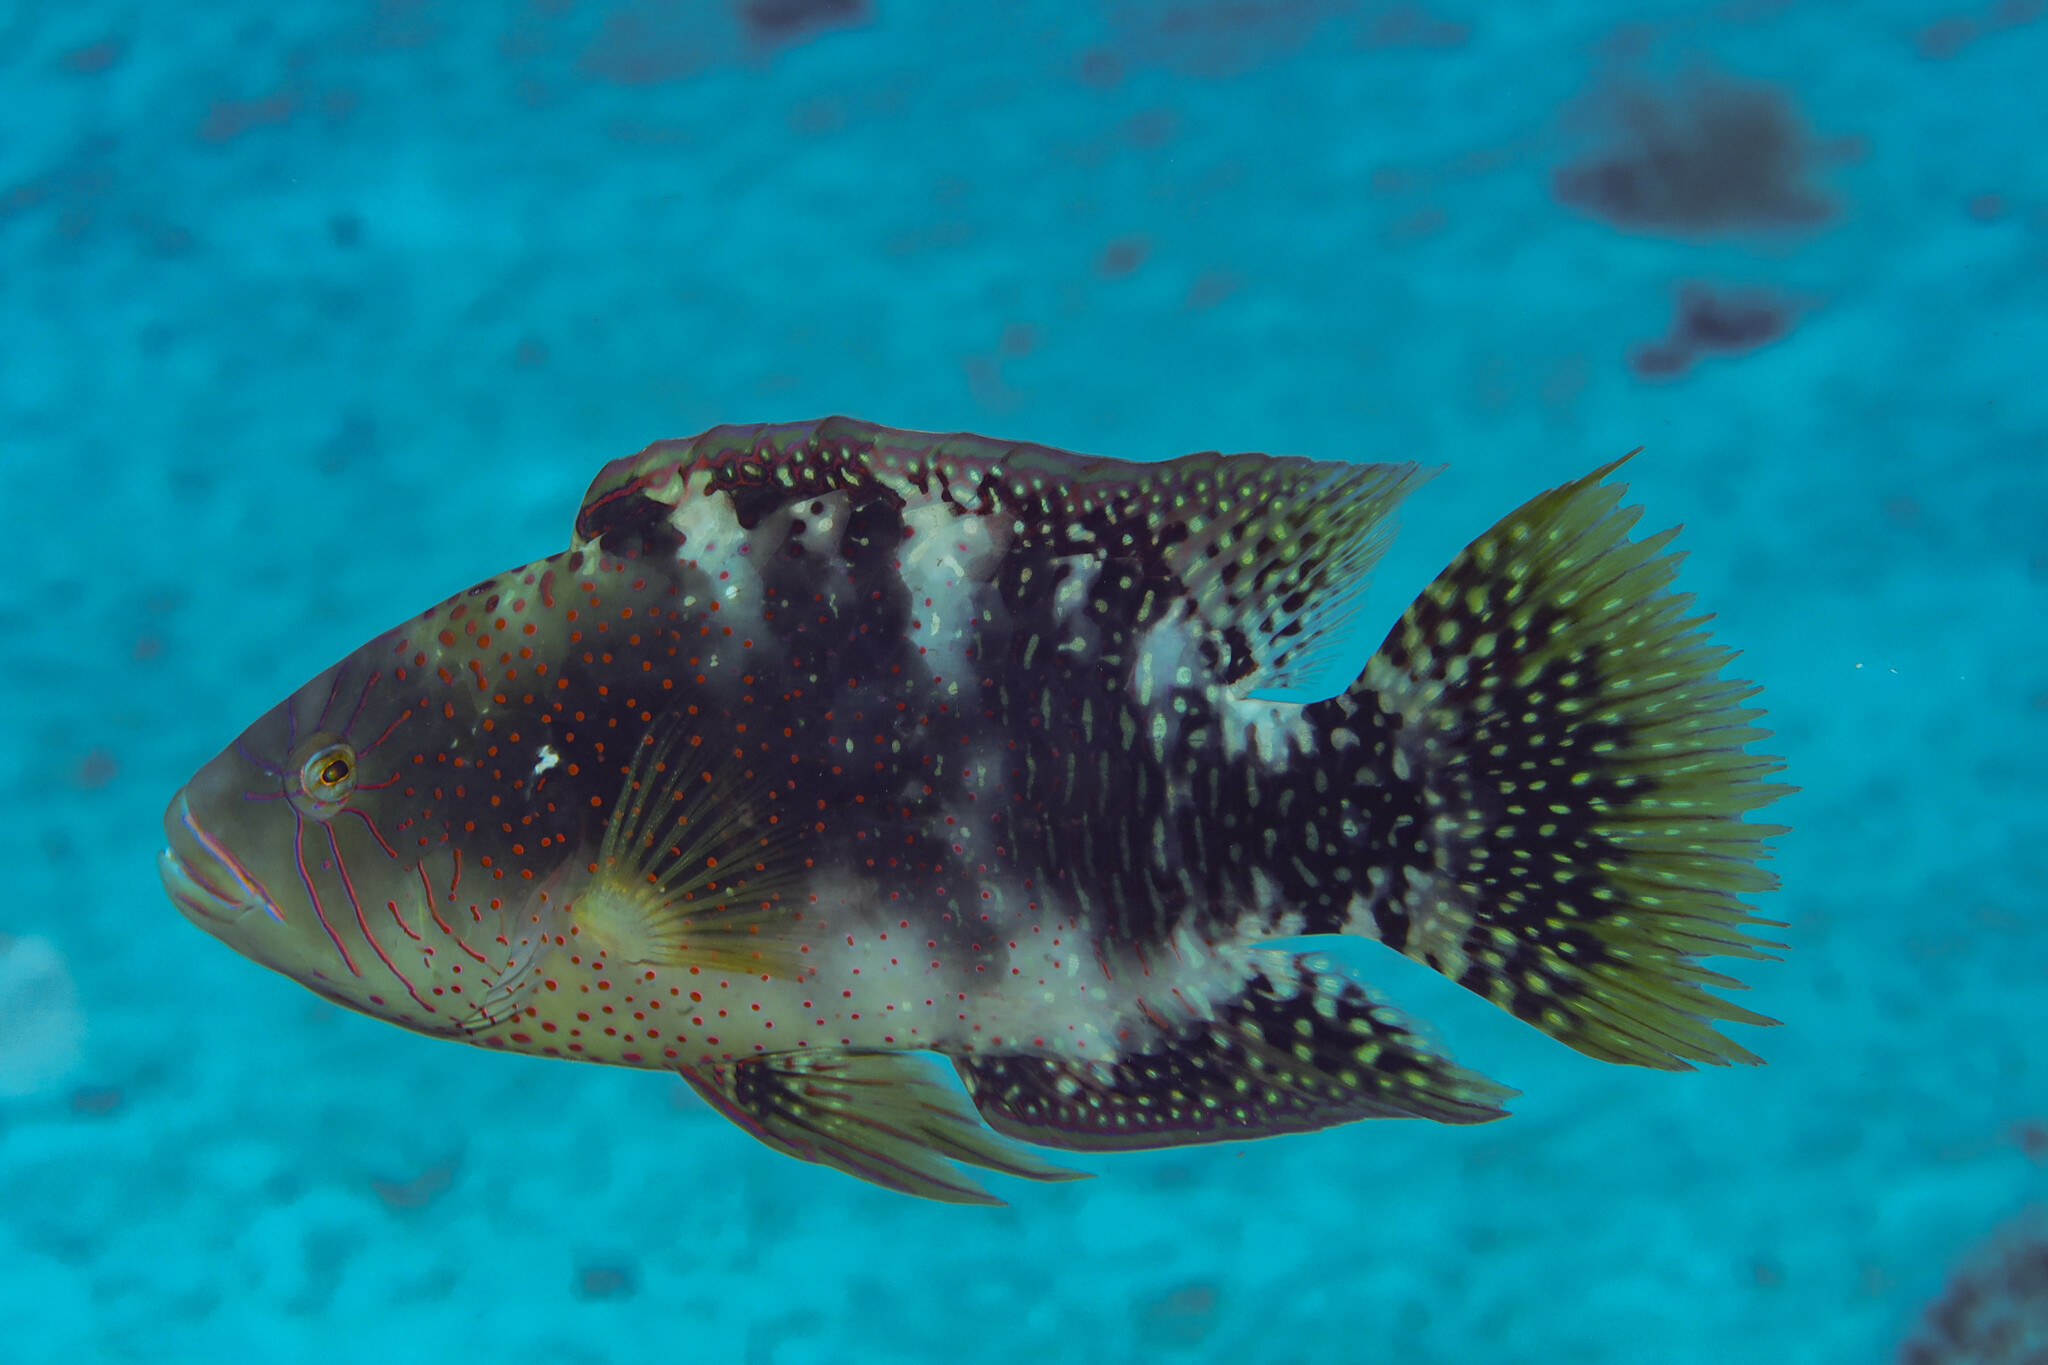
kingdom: Animalia
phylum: Chordata
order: Perciformes
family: Labridae
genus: Cheilinus
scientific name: Cheilinus abudjubbe
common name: Abudjubbe’s splendor wrasse
